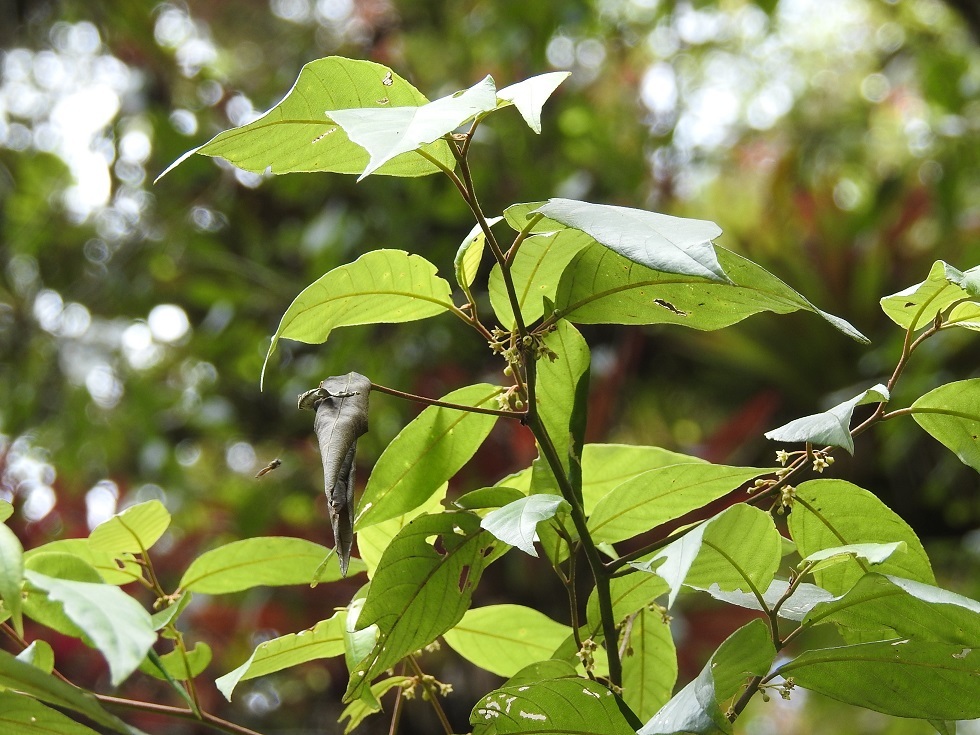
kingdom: Plantae
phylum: Tracheophyta
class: Magnoliopsida
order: Rosales
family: Rhamnaceae
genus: Frangula
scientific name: Frangula discolor
